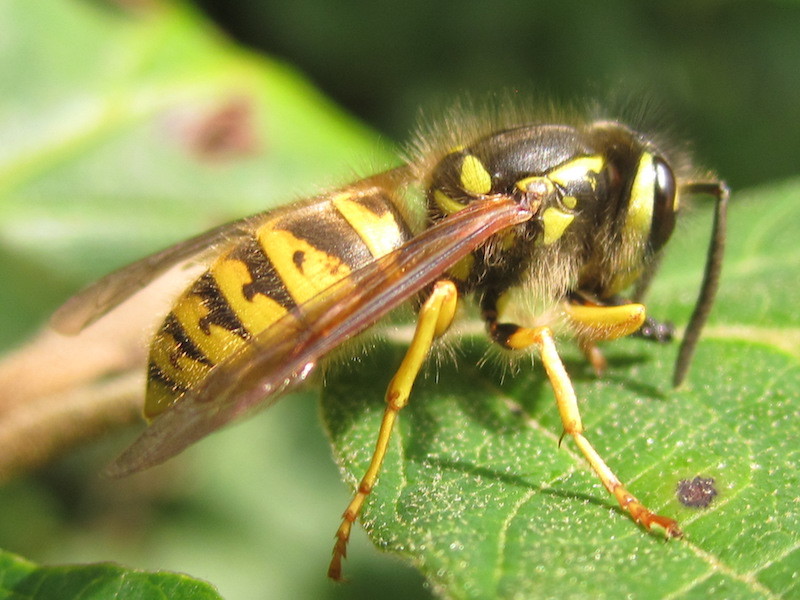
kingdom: Animalia
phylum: Arthropoda
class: Insecta
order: Hymenoptera
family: Vespidae
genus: Vespula
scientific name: Vespula flavopilosa
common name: Downy yellowjacket
